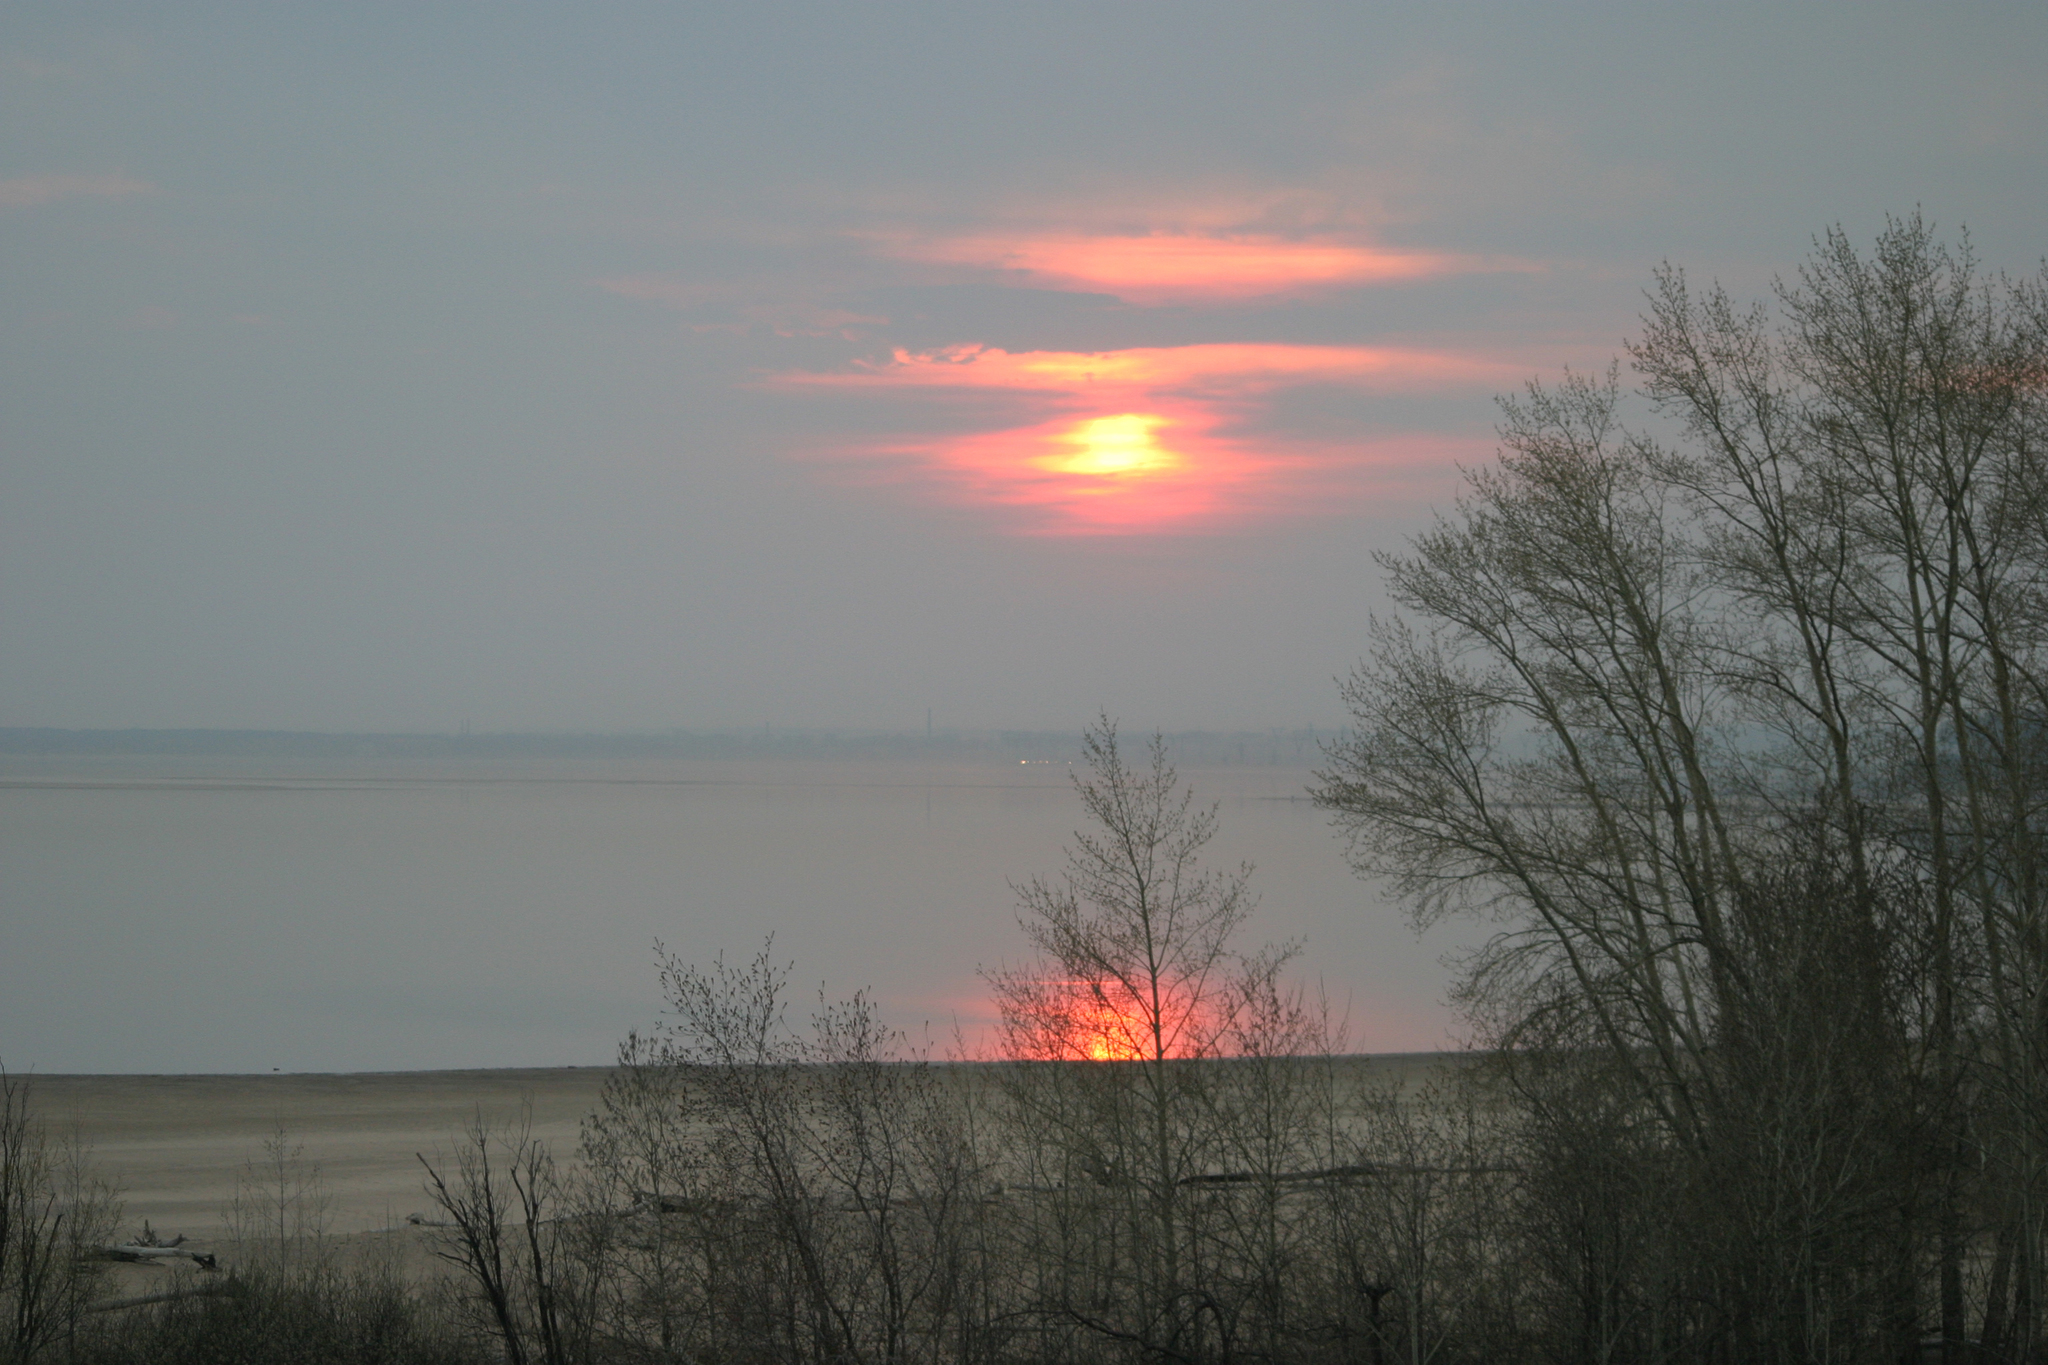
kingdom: Plantae
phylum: Tracheophyta
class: Magnoliopsida
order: Malpighiales
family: Salicaceae
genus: Populus
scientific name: Populus nigra
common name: Black poplar
